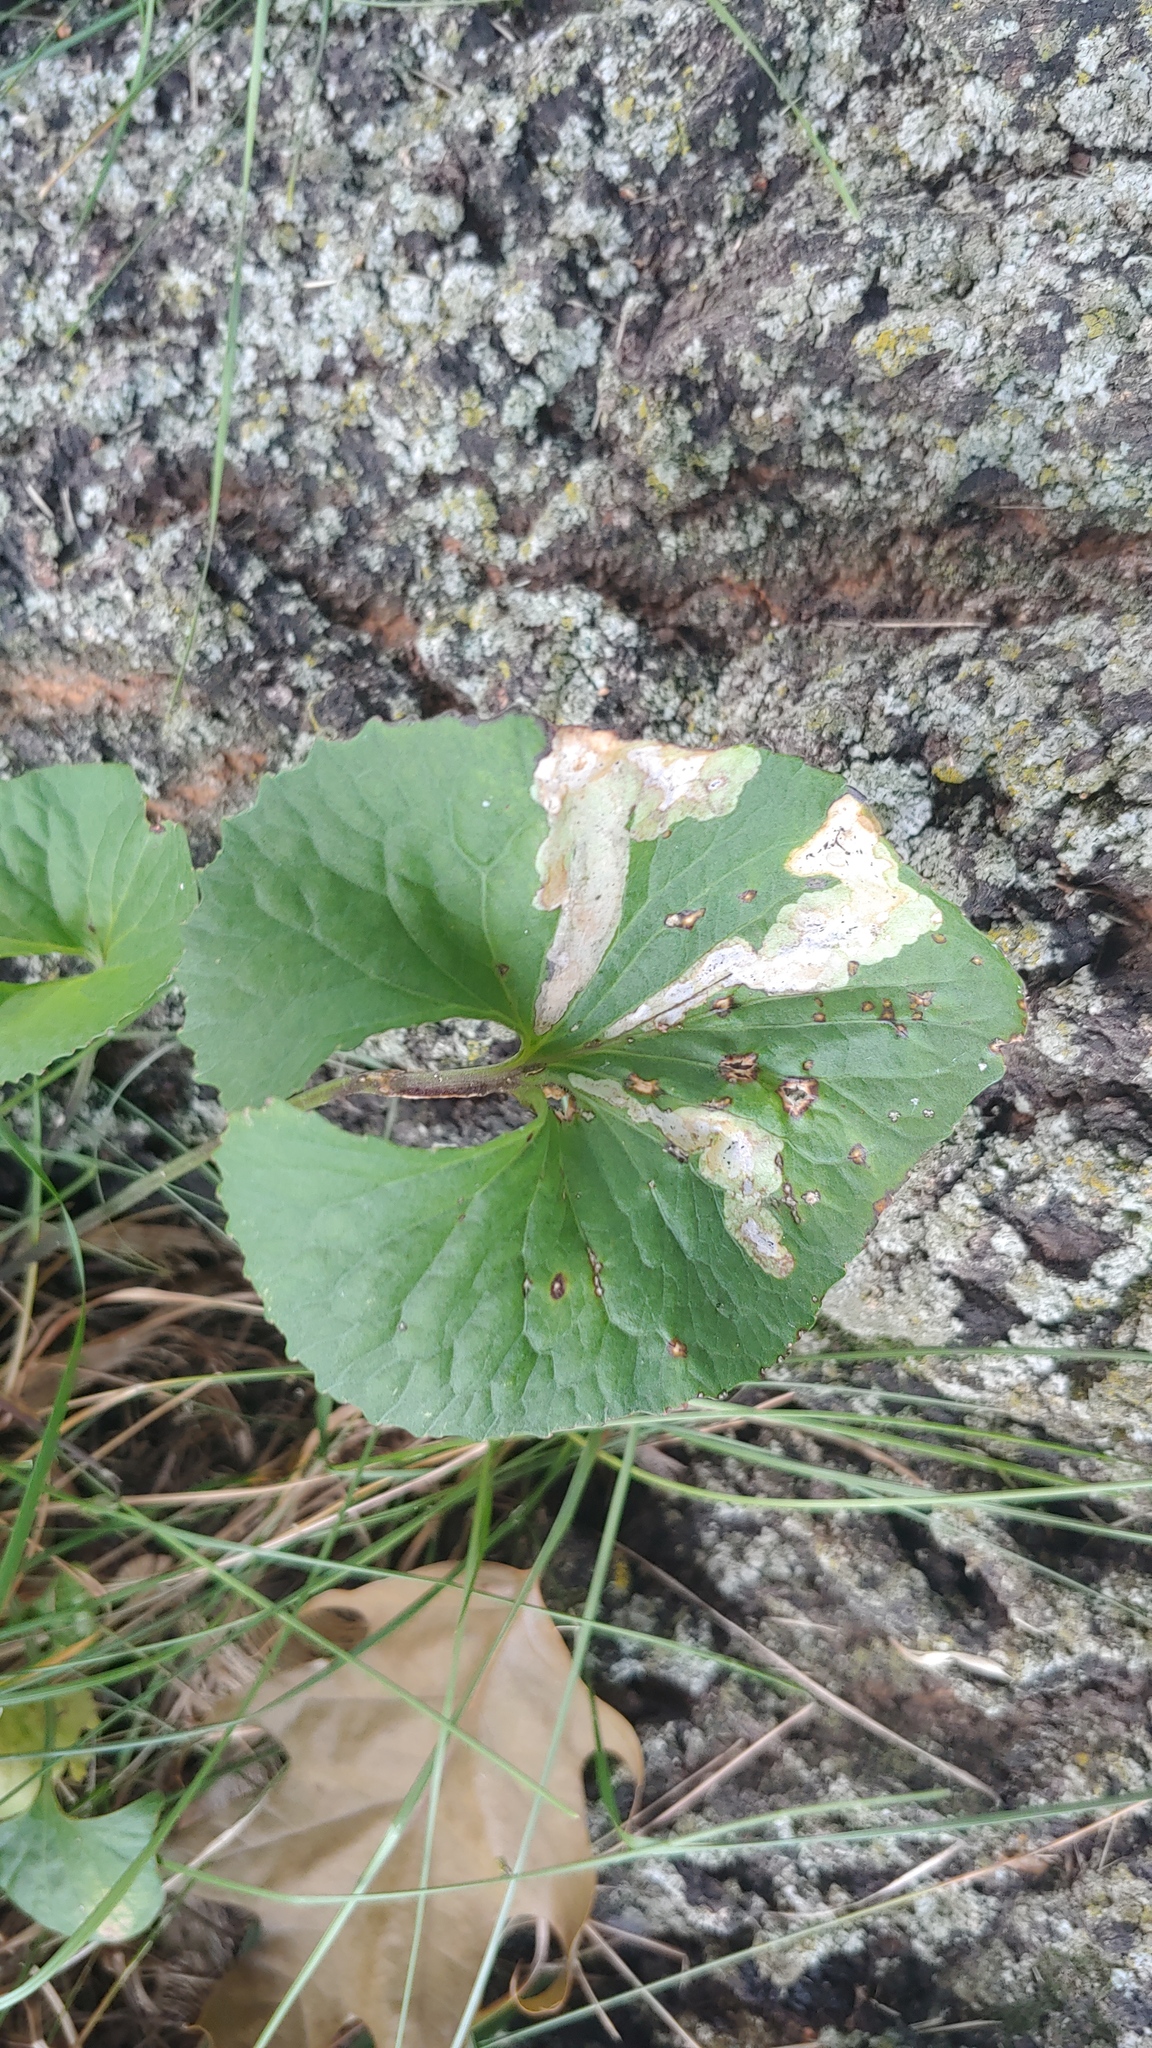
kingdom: Animalia
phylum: Arthropoda
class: Insecta
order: Diptera
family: Agromyzidae
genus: Liriomyza
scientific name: Liriomyza violivora
